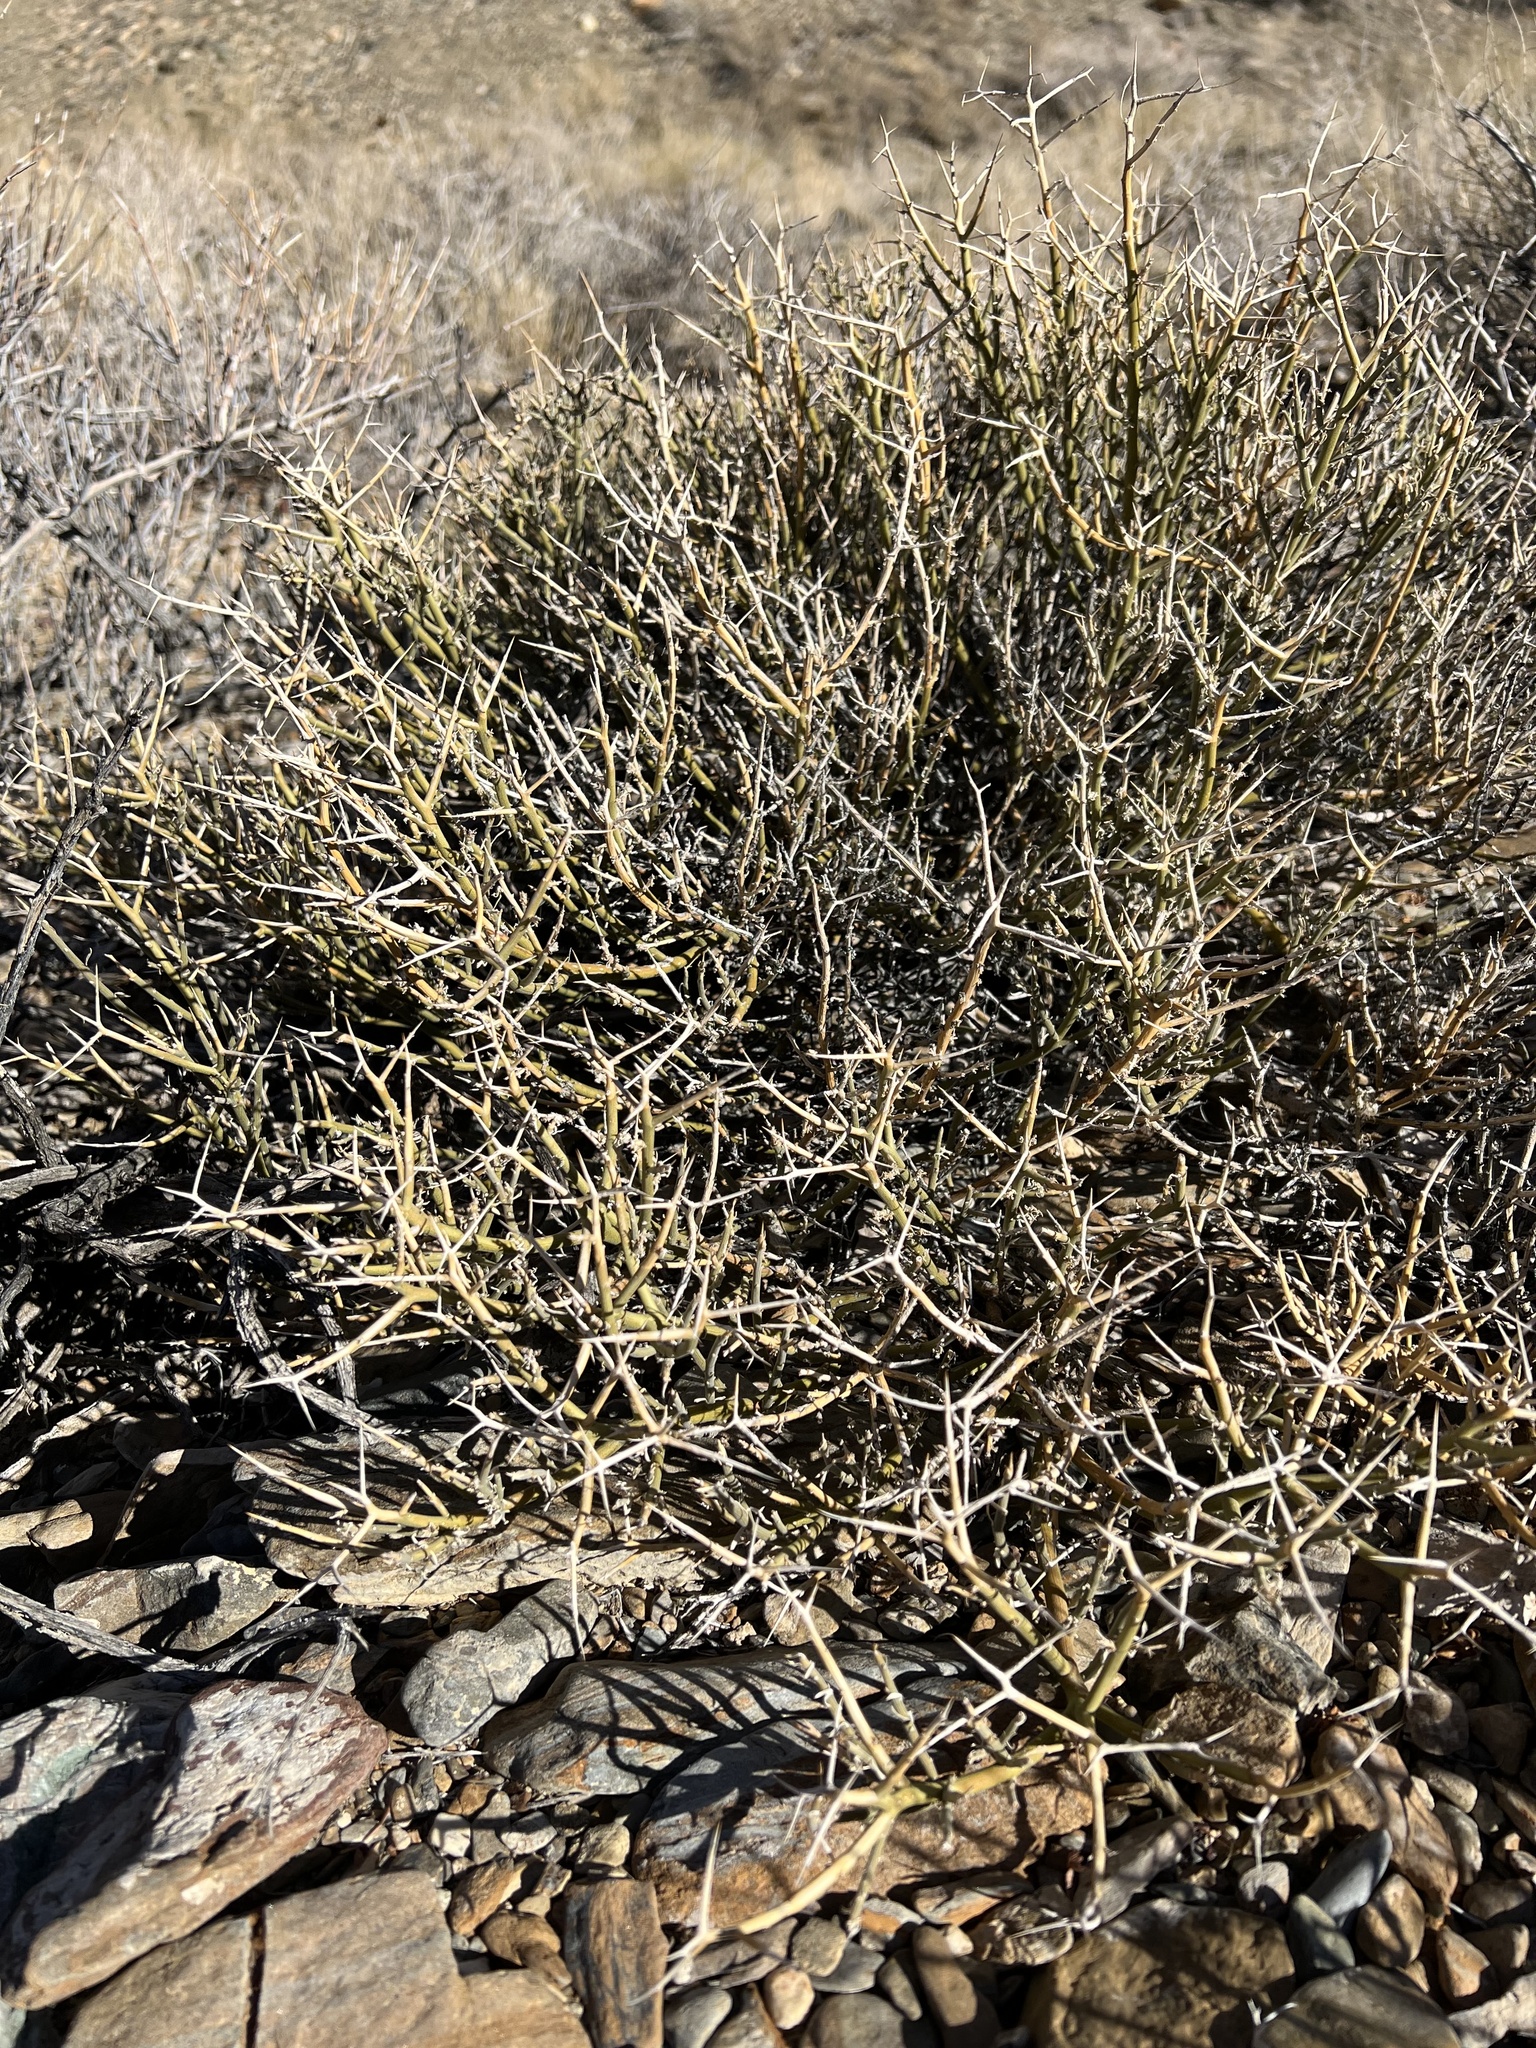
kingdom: Plantae
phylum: Tracheophyta
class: Magnoliopsida
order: Lamiales
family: Oleaceae
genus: Menodora
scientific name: Menodora spinescens
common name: Spiny menodora
